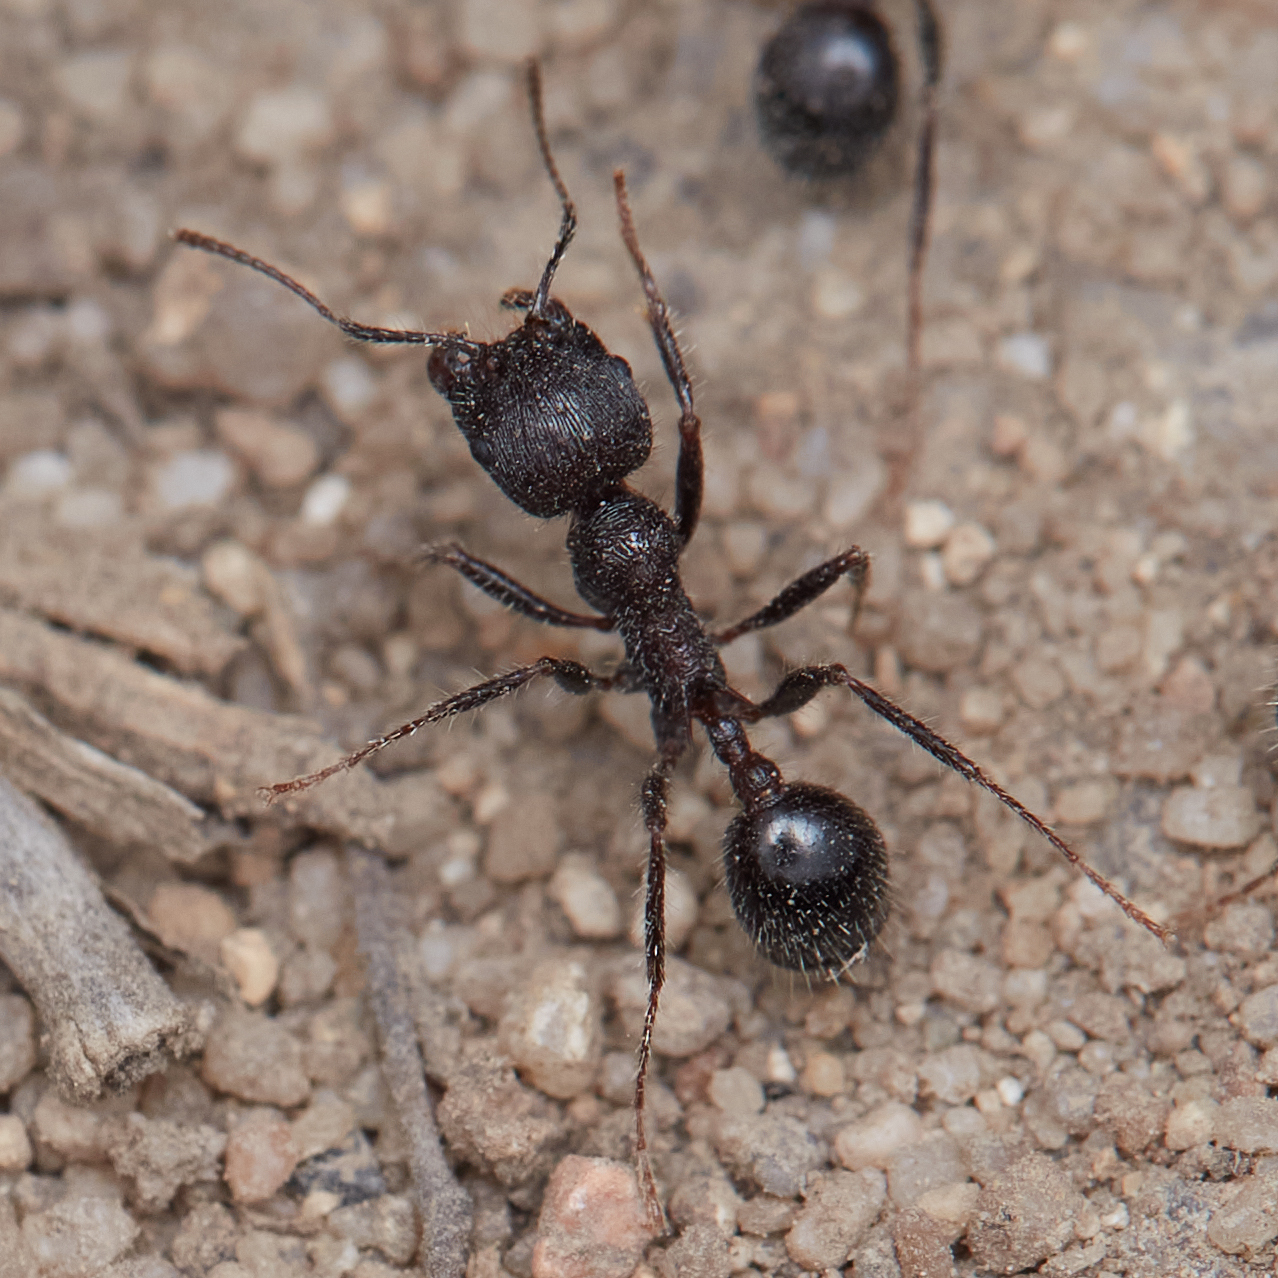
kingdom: Animalia
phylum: Arthropoda
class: Insecta
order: Hymenoptera
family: Formicidae
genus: Veromessor
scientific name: Veromessor andrei
